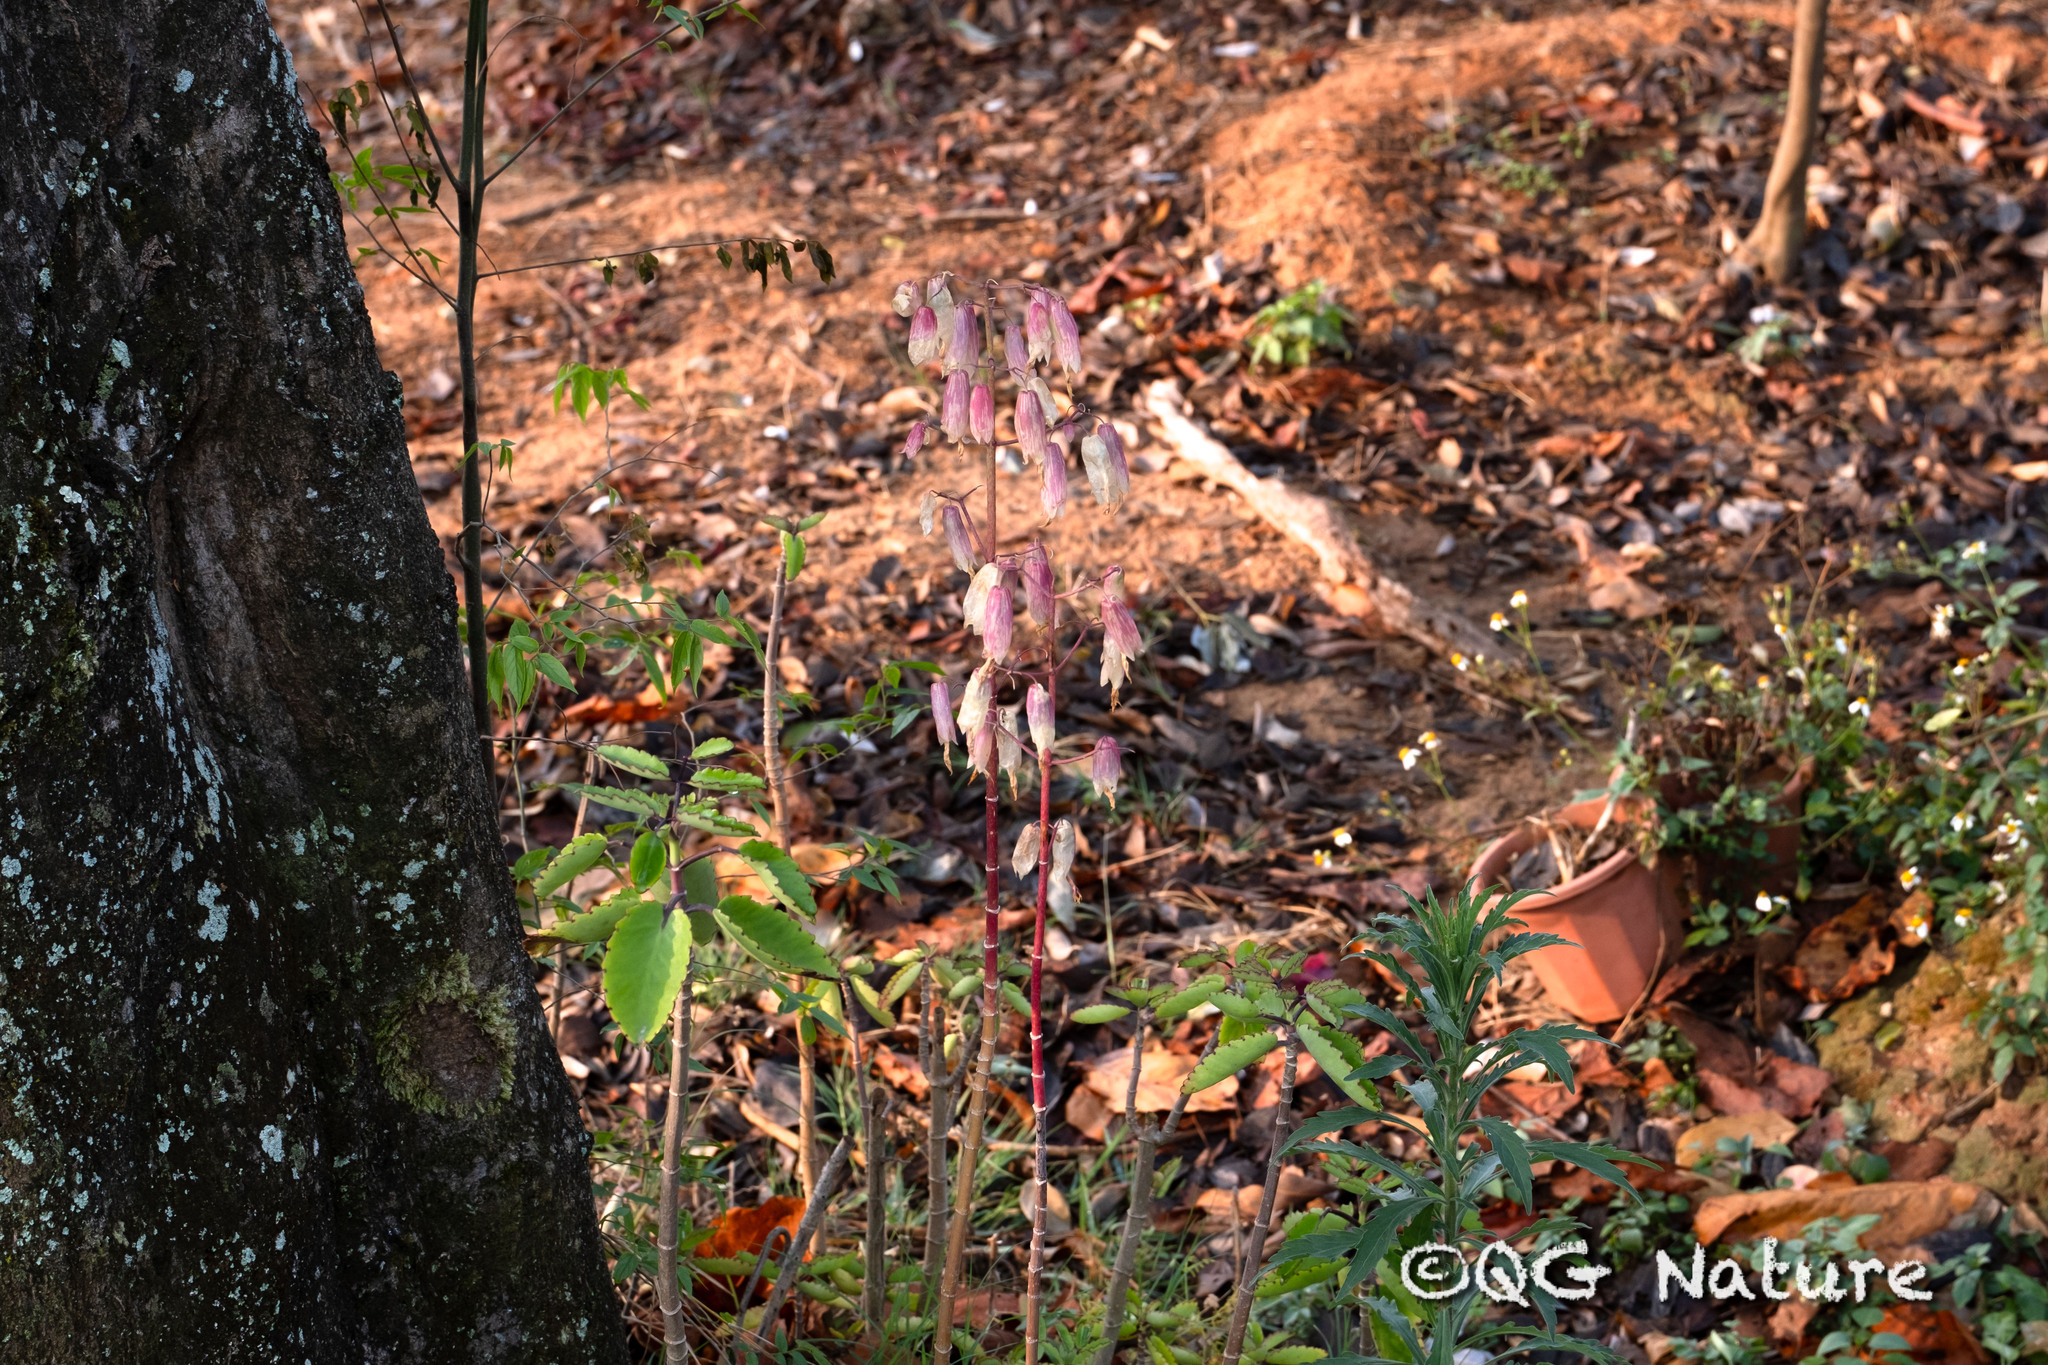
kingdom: Plantae
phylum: Tracheophyta
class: Magnoliopsida
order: Saxifragales
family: Crassulaceae
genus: Kalanchoe
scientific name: Kalanchoe pinnata
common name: Cathedral bells
